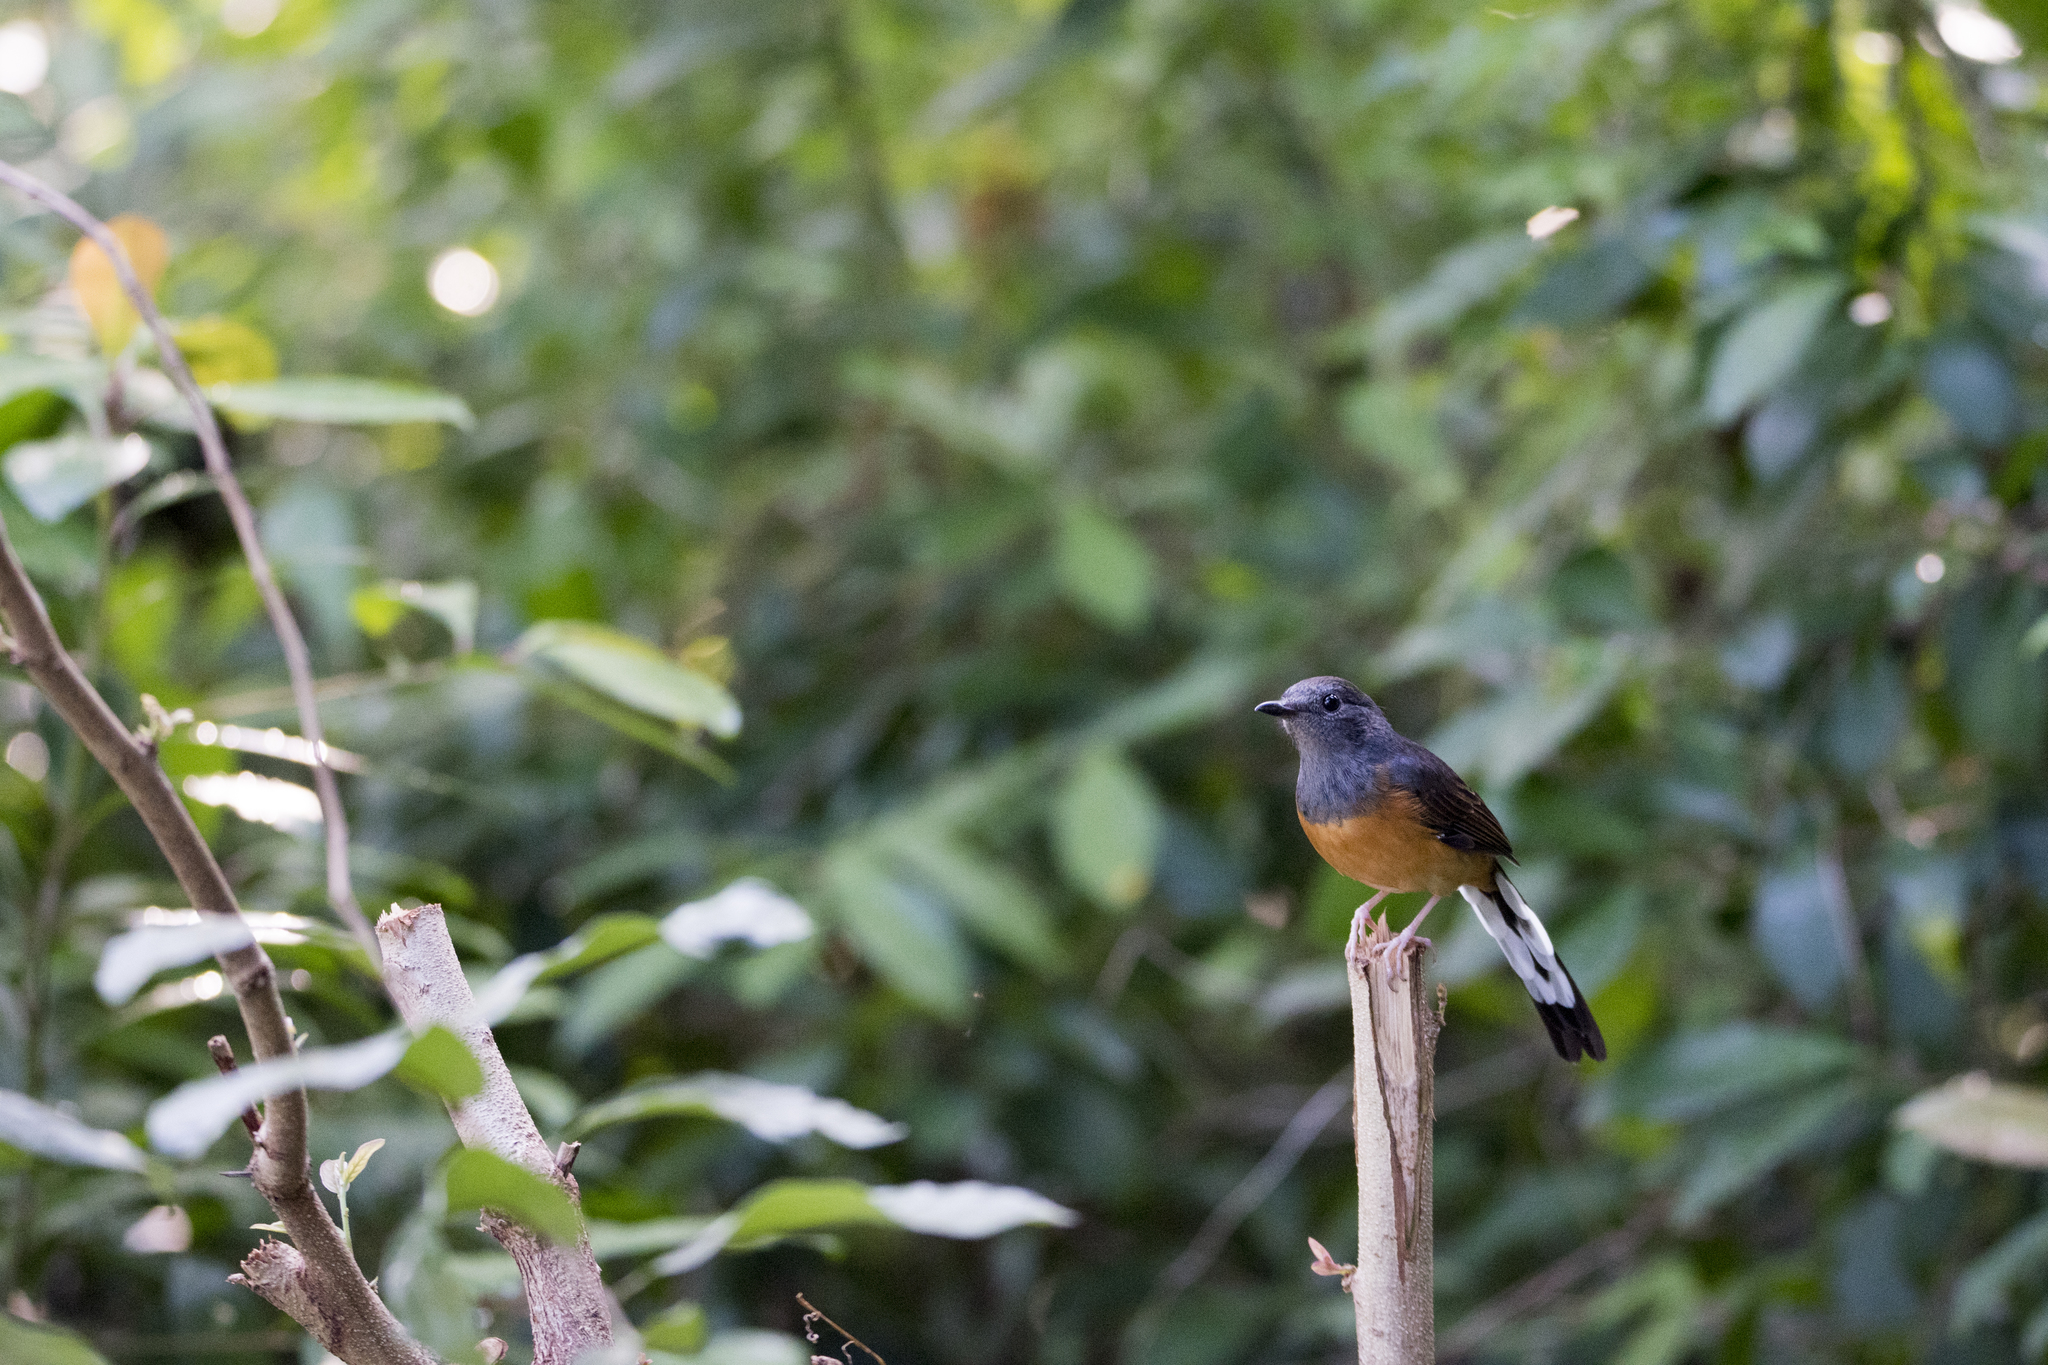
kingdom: Animalia
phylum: Chordata
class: Aves
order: Passeriformes
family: Muscicapidae
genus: Copsychus
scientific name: Copsychus malabaricus
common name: White-rumped shama
